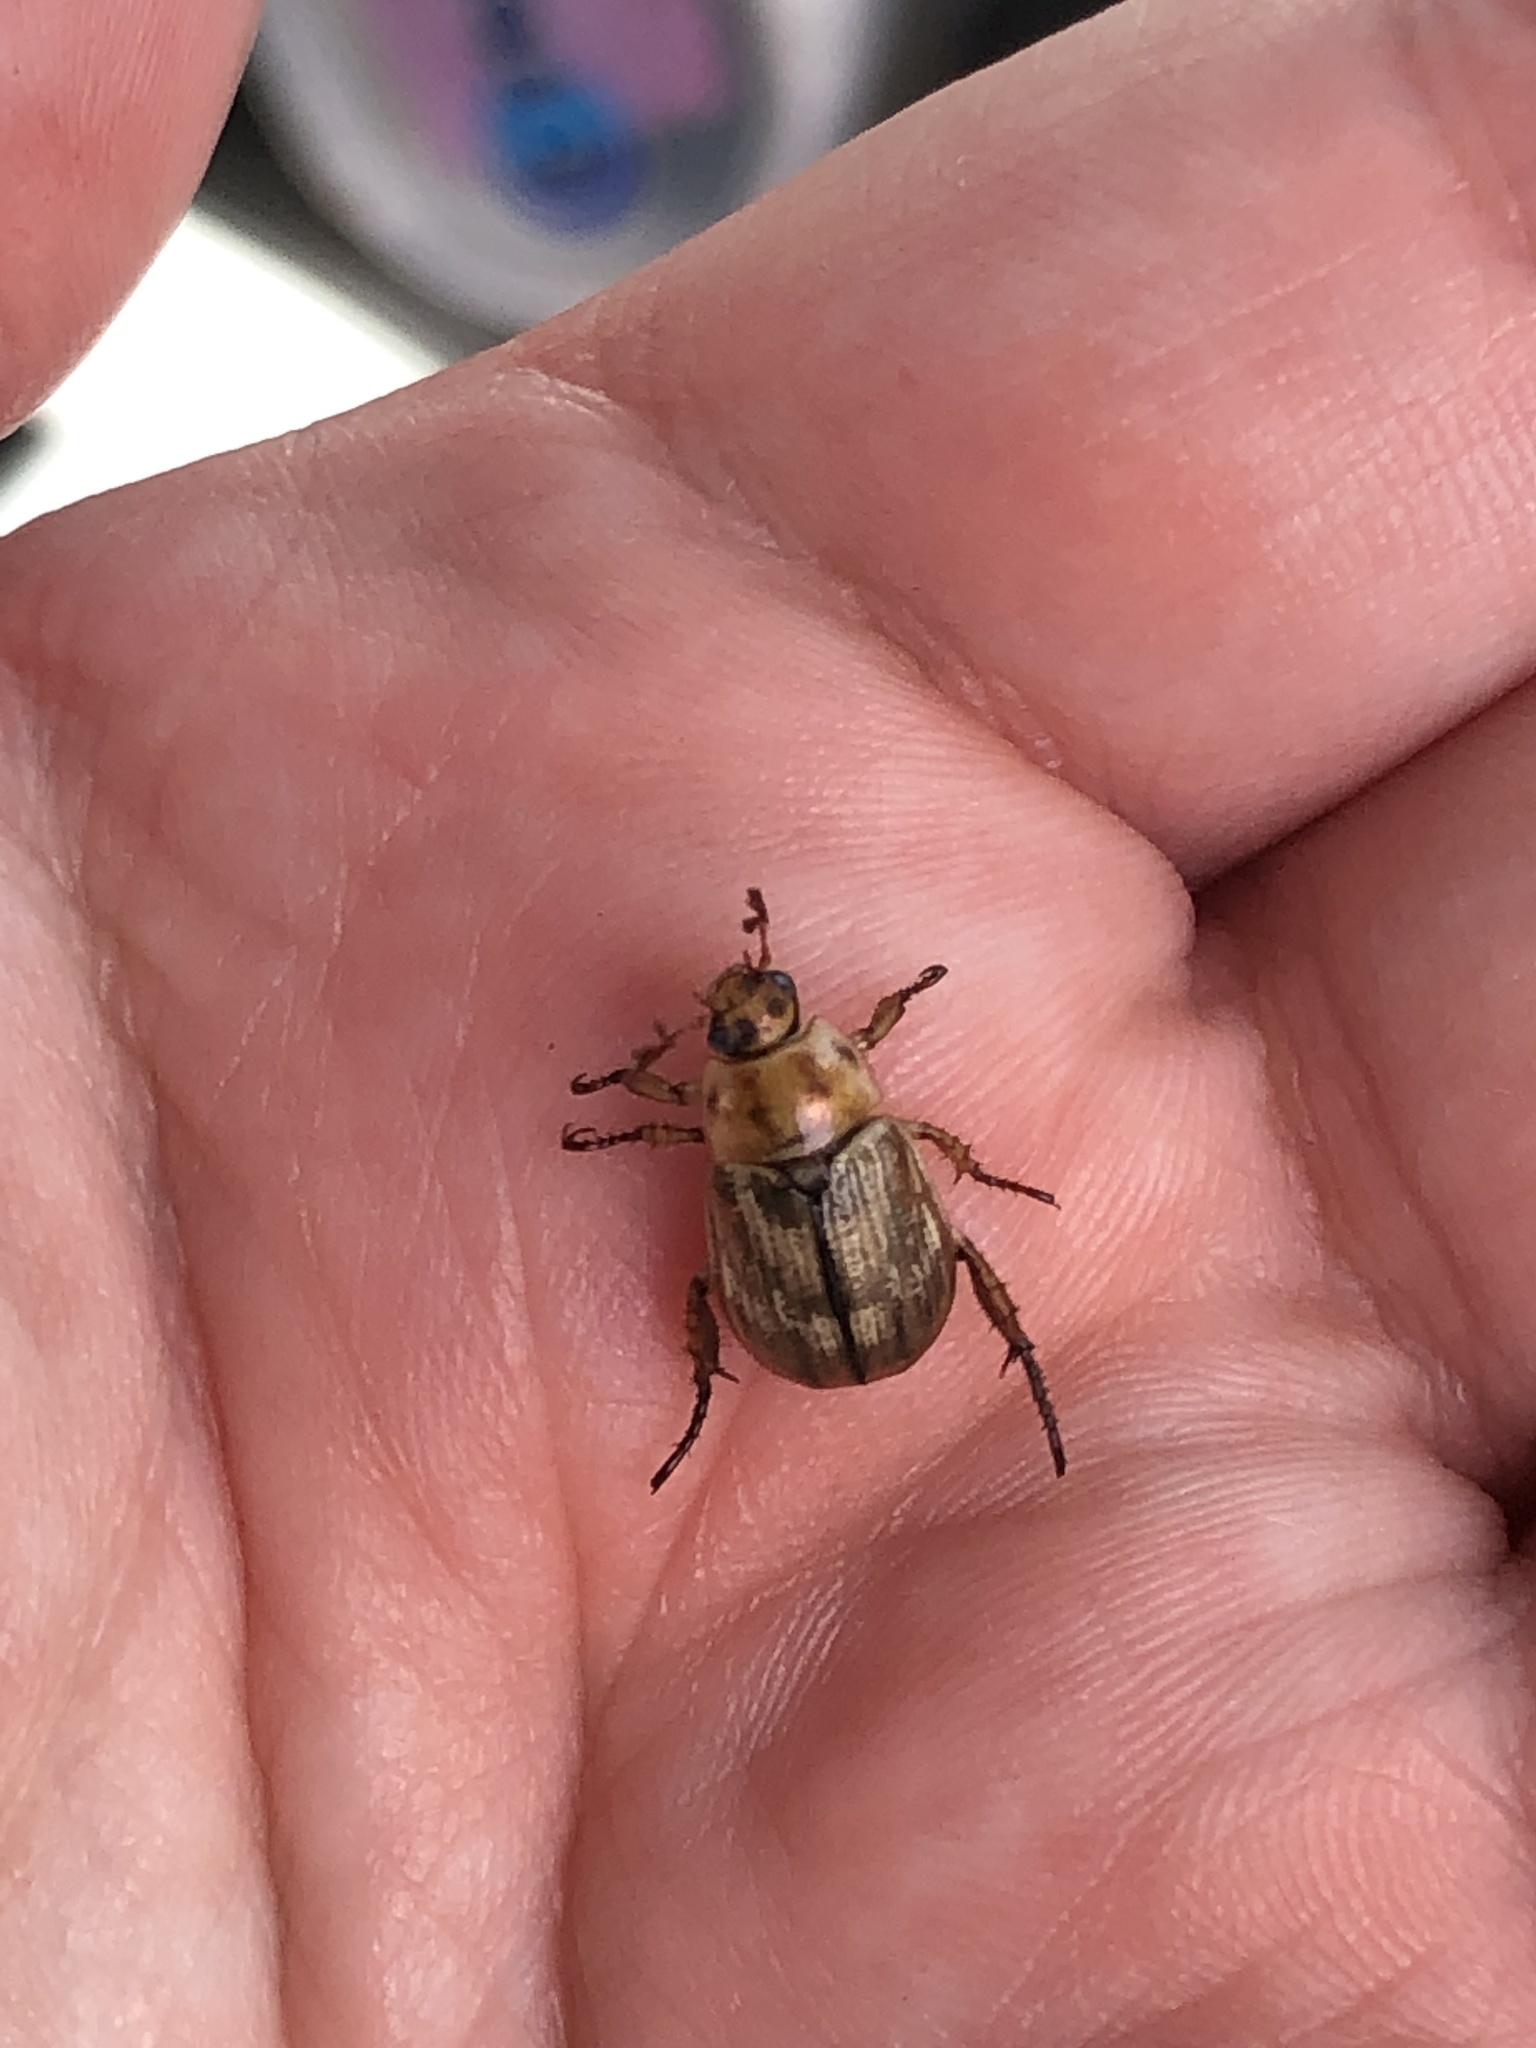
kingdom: Animalia
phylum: Arthropoda
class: Insecta
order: Coleoptera
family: Scarabaeidae
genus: Exomala
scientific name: Exomala orientalis
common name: Oriental beetle
